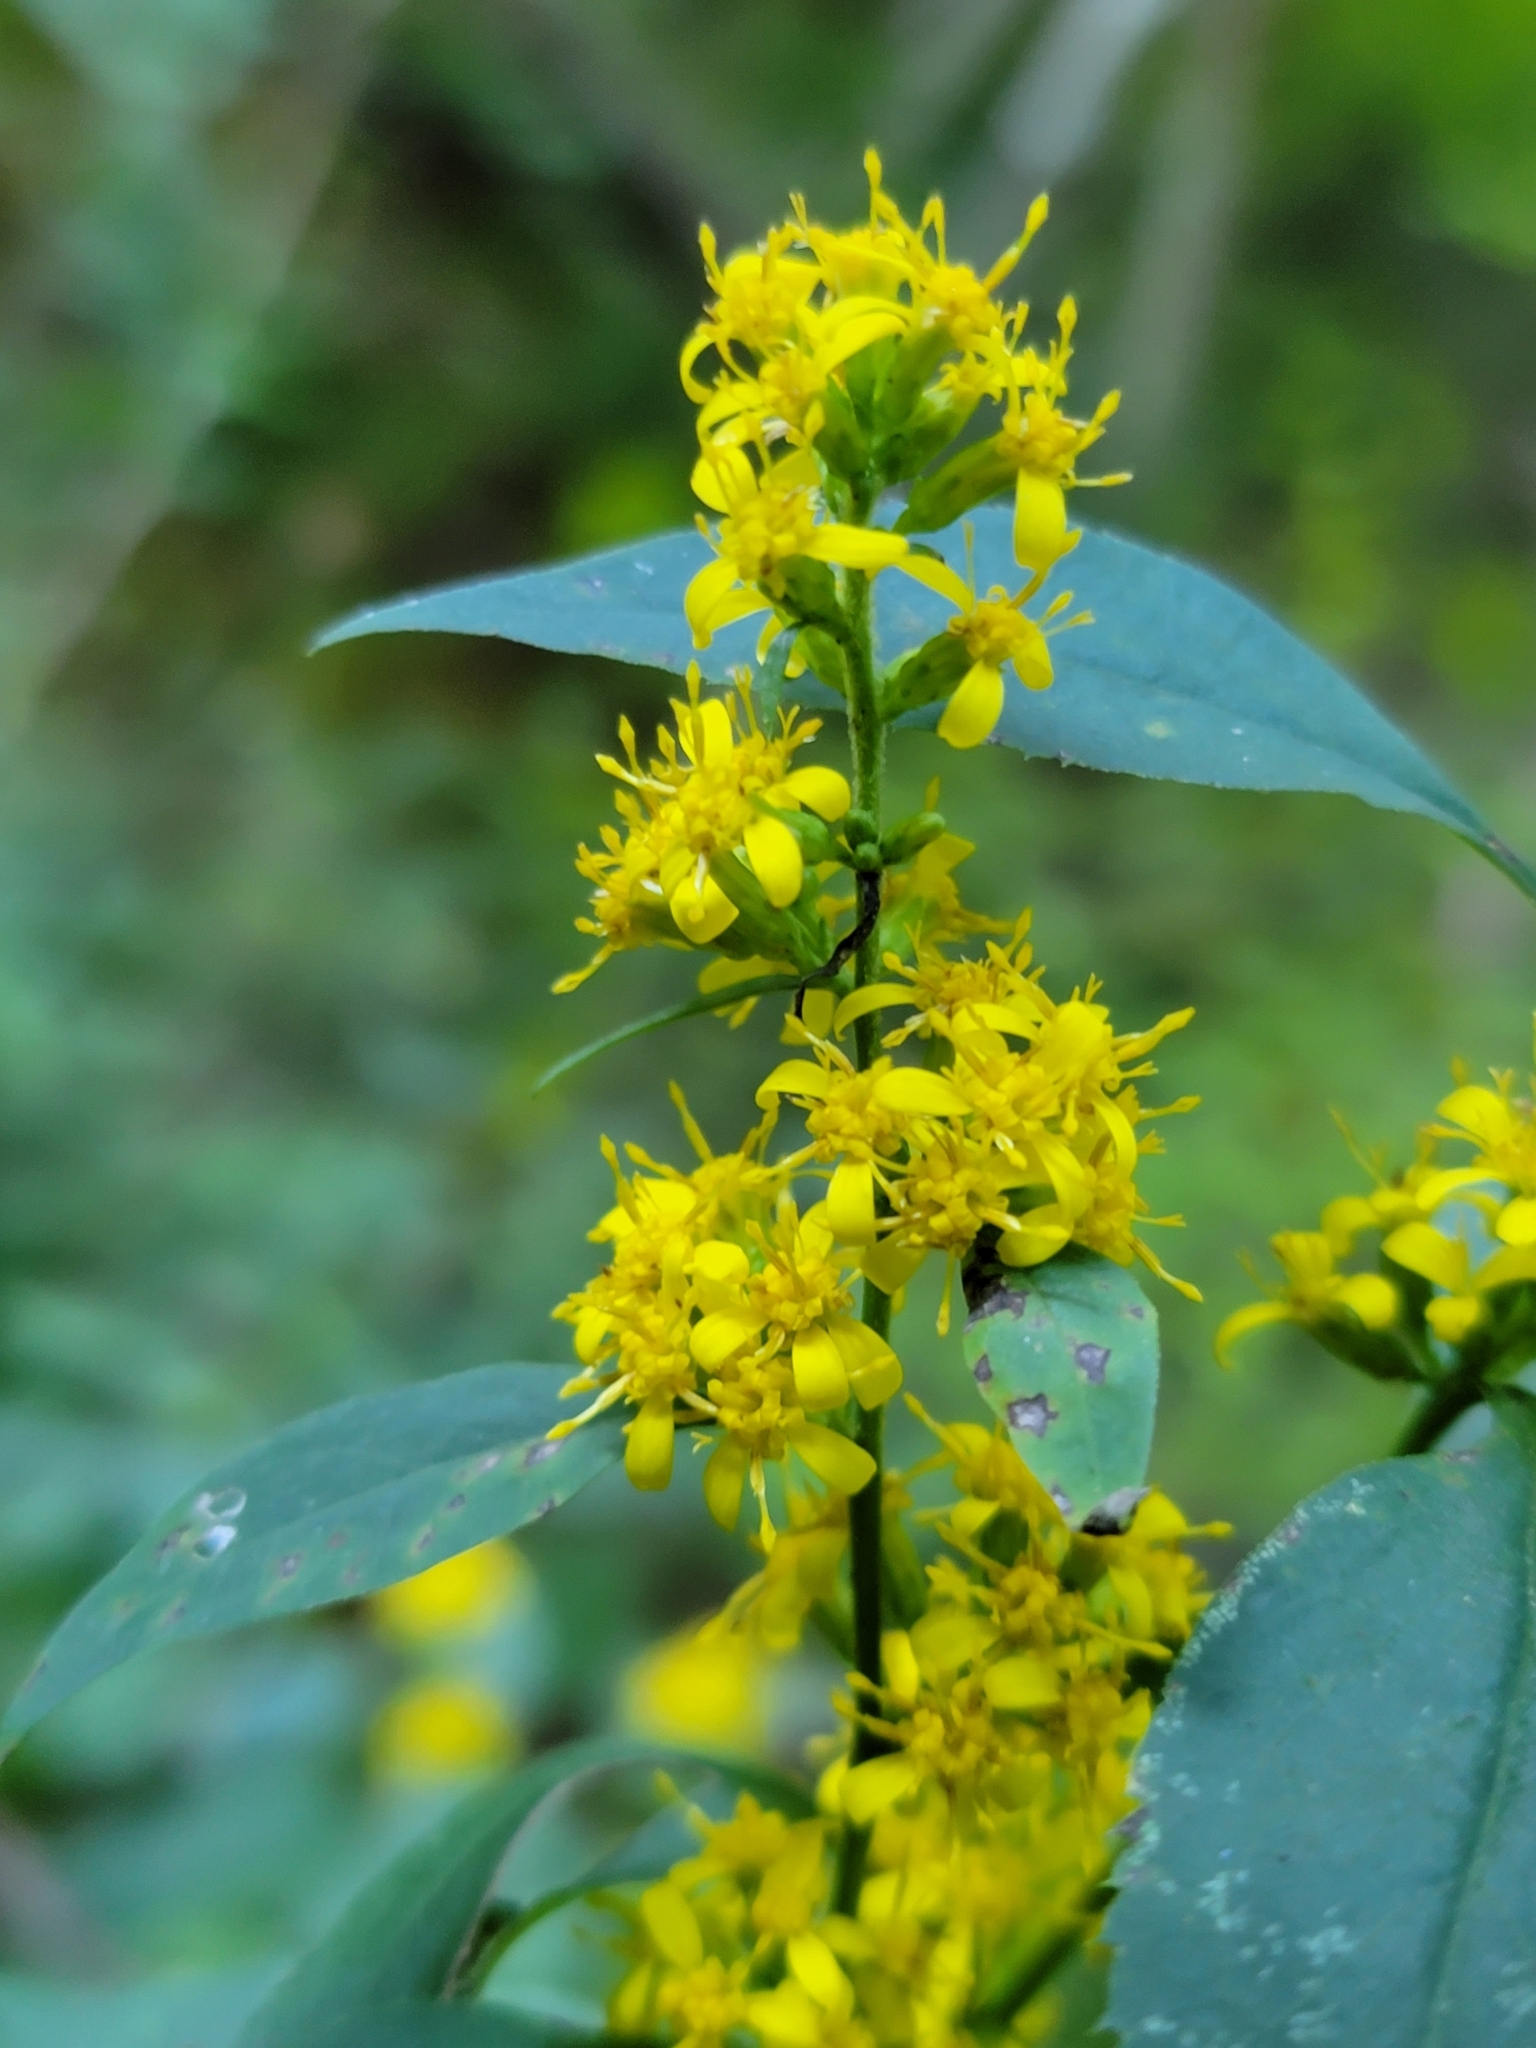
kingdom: Plantae
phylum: Tracheophyta
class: Magnoliopsida
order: Asterales
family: Asteraceae
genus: Solidago
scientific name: Solidago flexicaulis
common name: Zig-zag goldenrod
